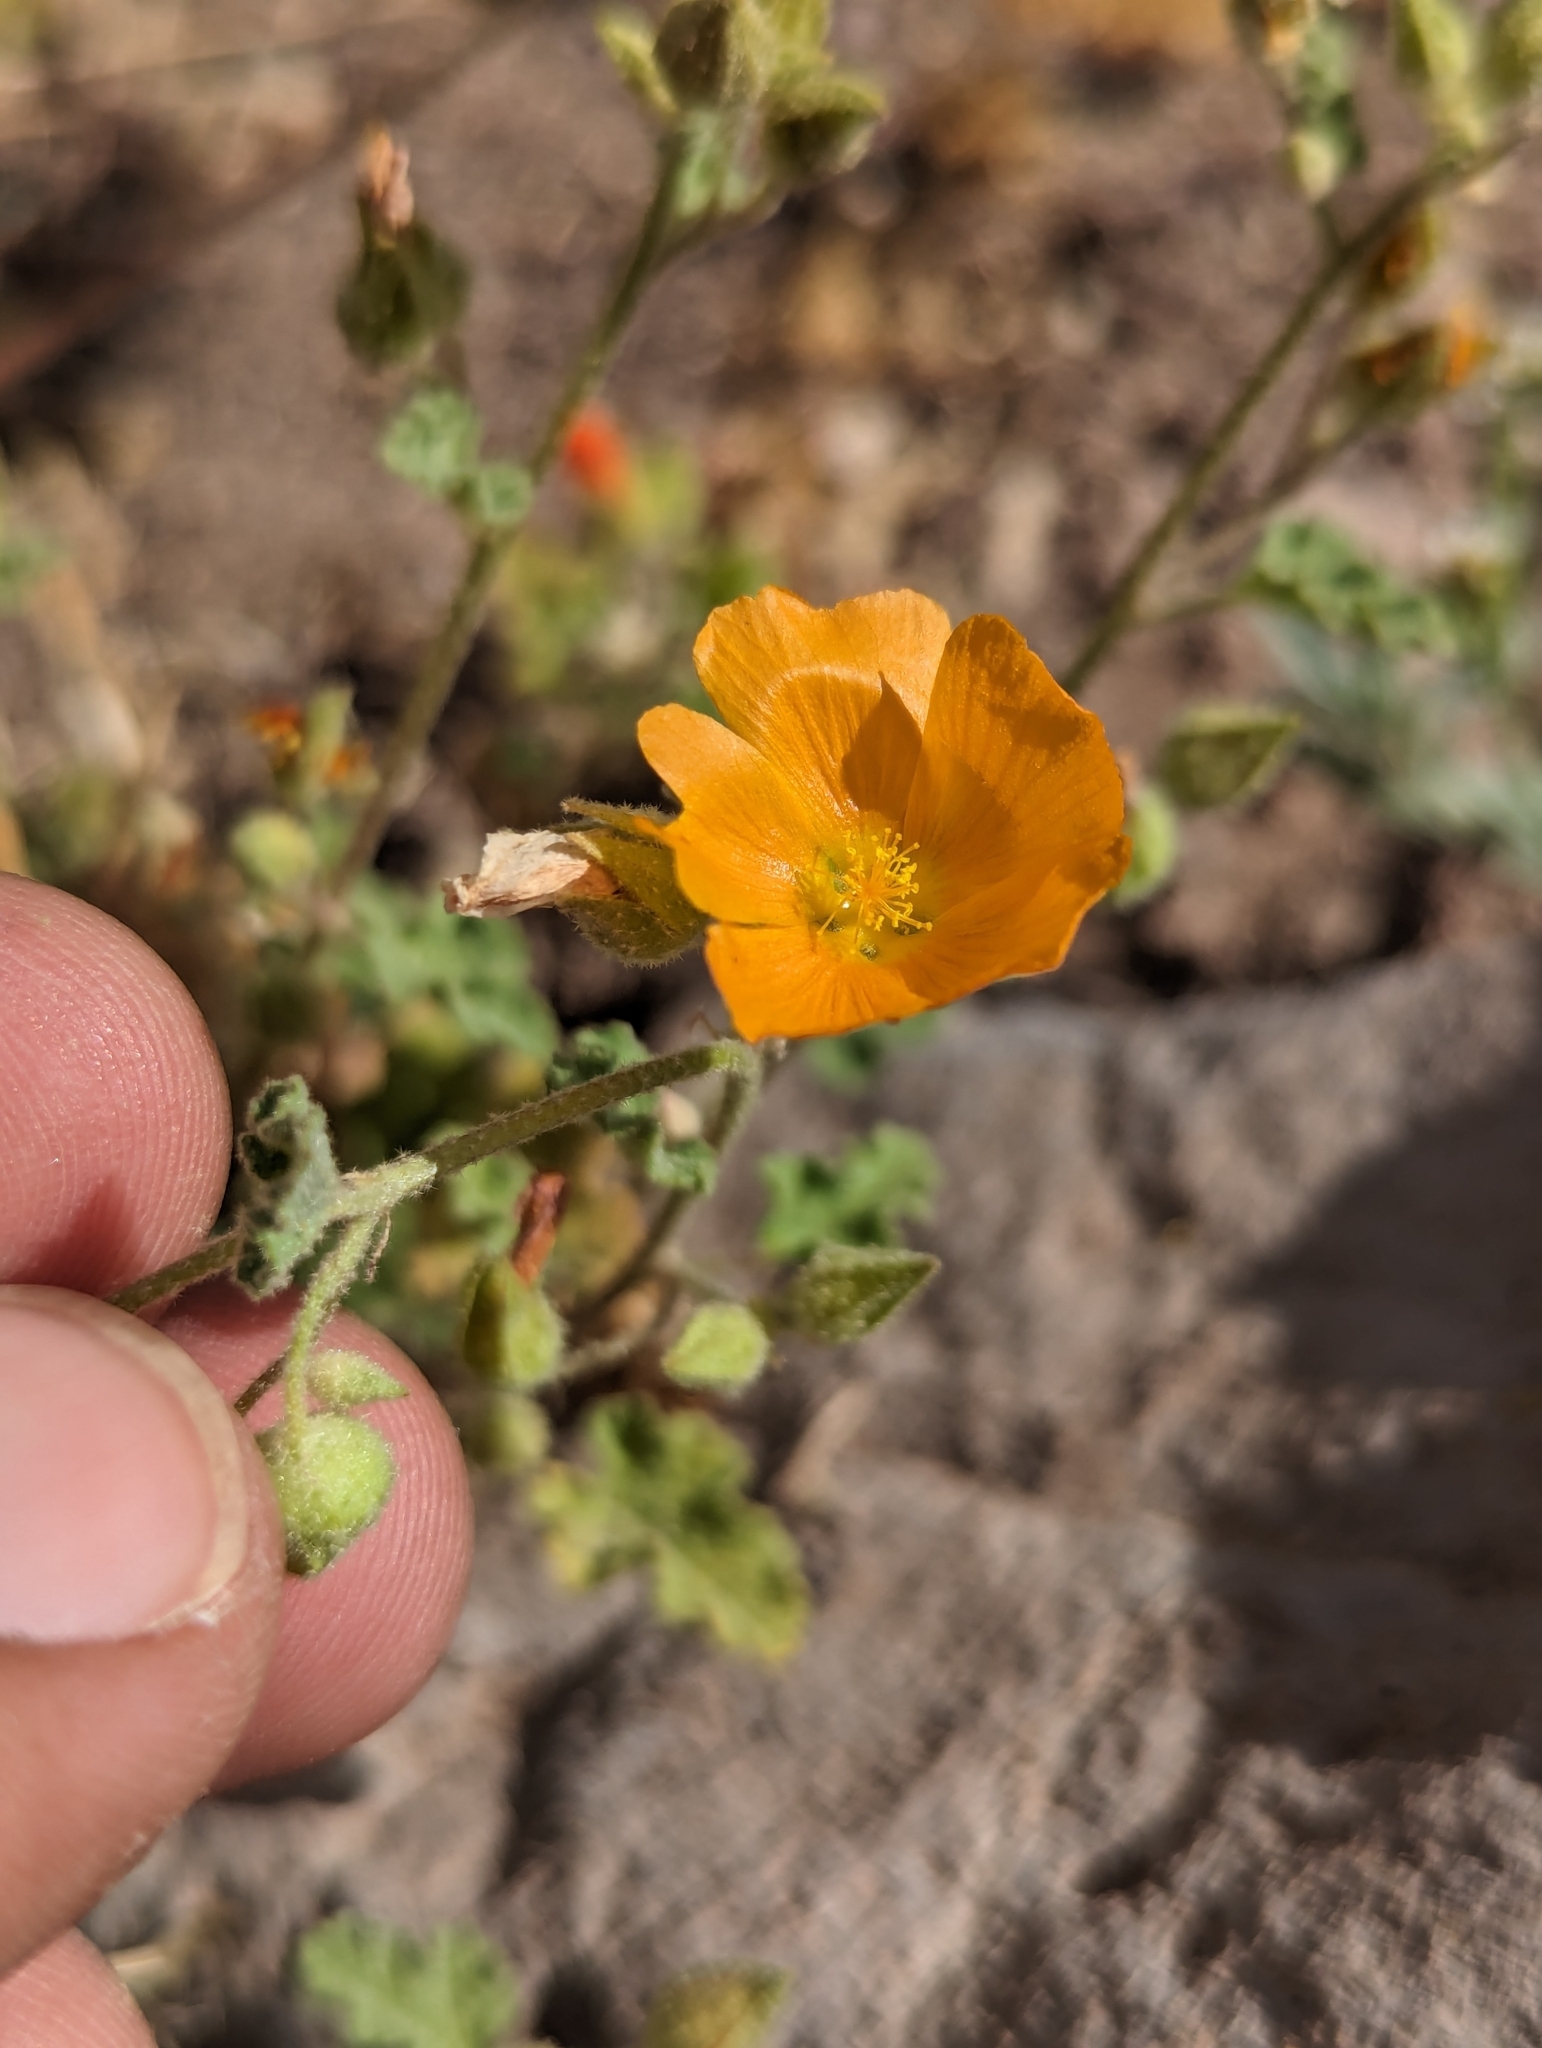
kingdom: Plantae
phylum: Tracheophyta
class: Magnoliopsida
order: Malvales
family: Malvaceae
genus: Sphaeralcea
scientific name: Sphaeralcea coulteri
